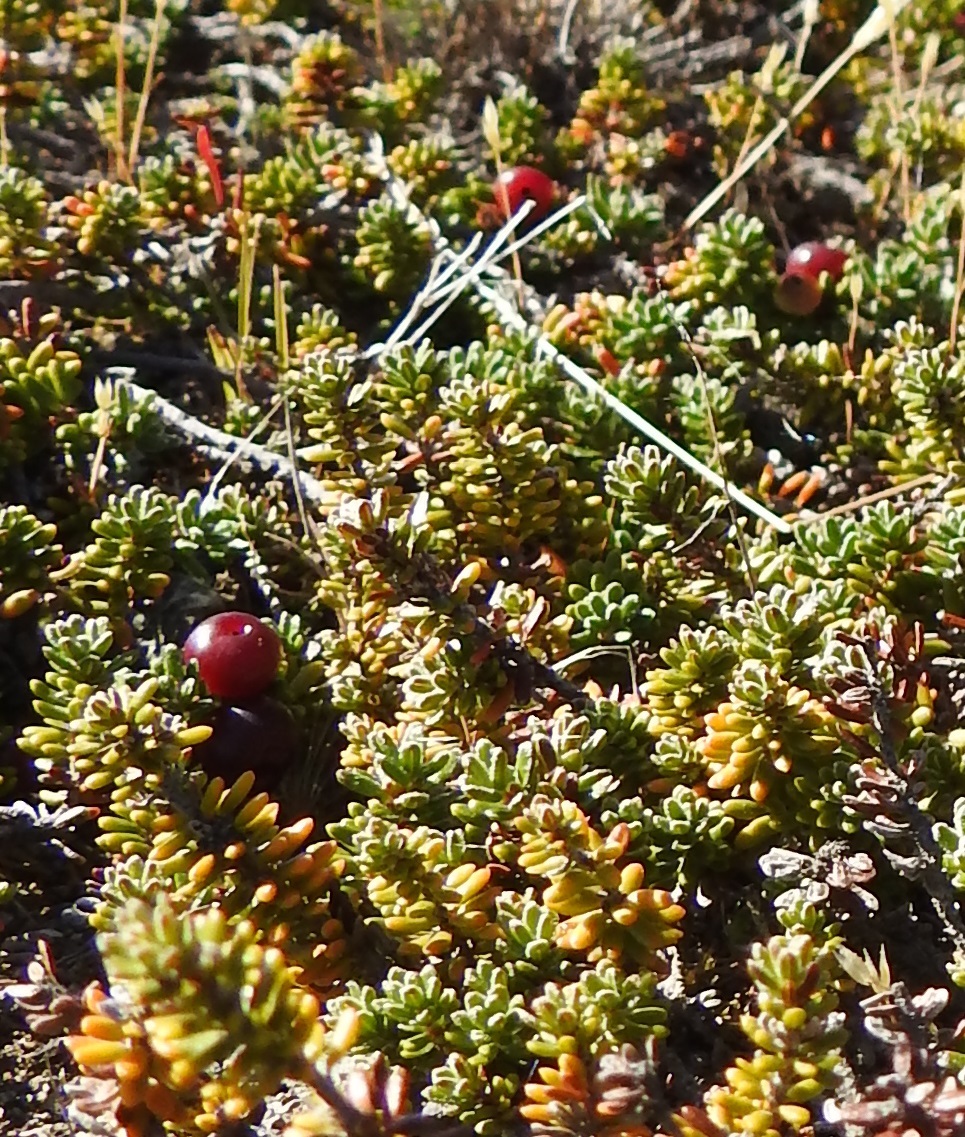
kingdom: Plantae
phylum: Tracheophyta
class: Magnoliopsida
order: Ericales
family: Ericaceae
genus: Empetrum
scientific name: Empetrum rubrum
